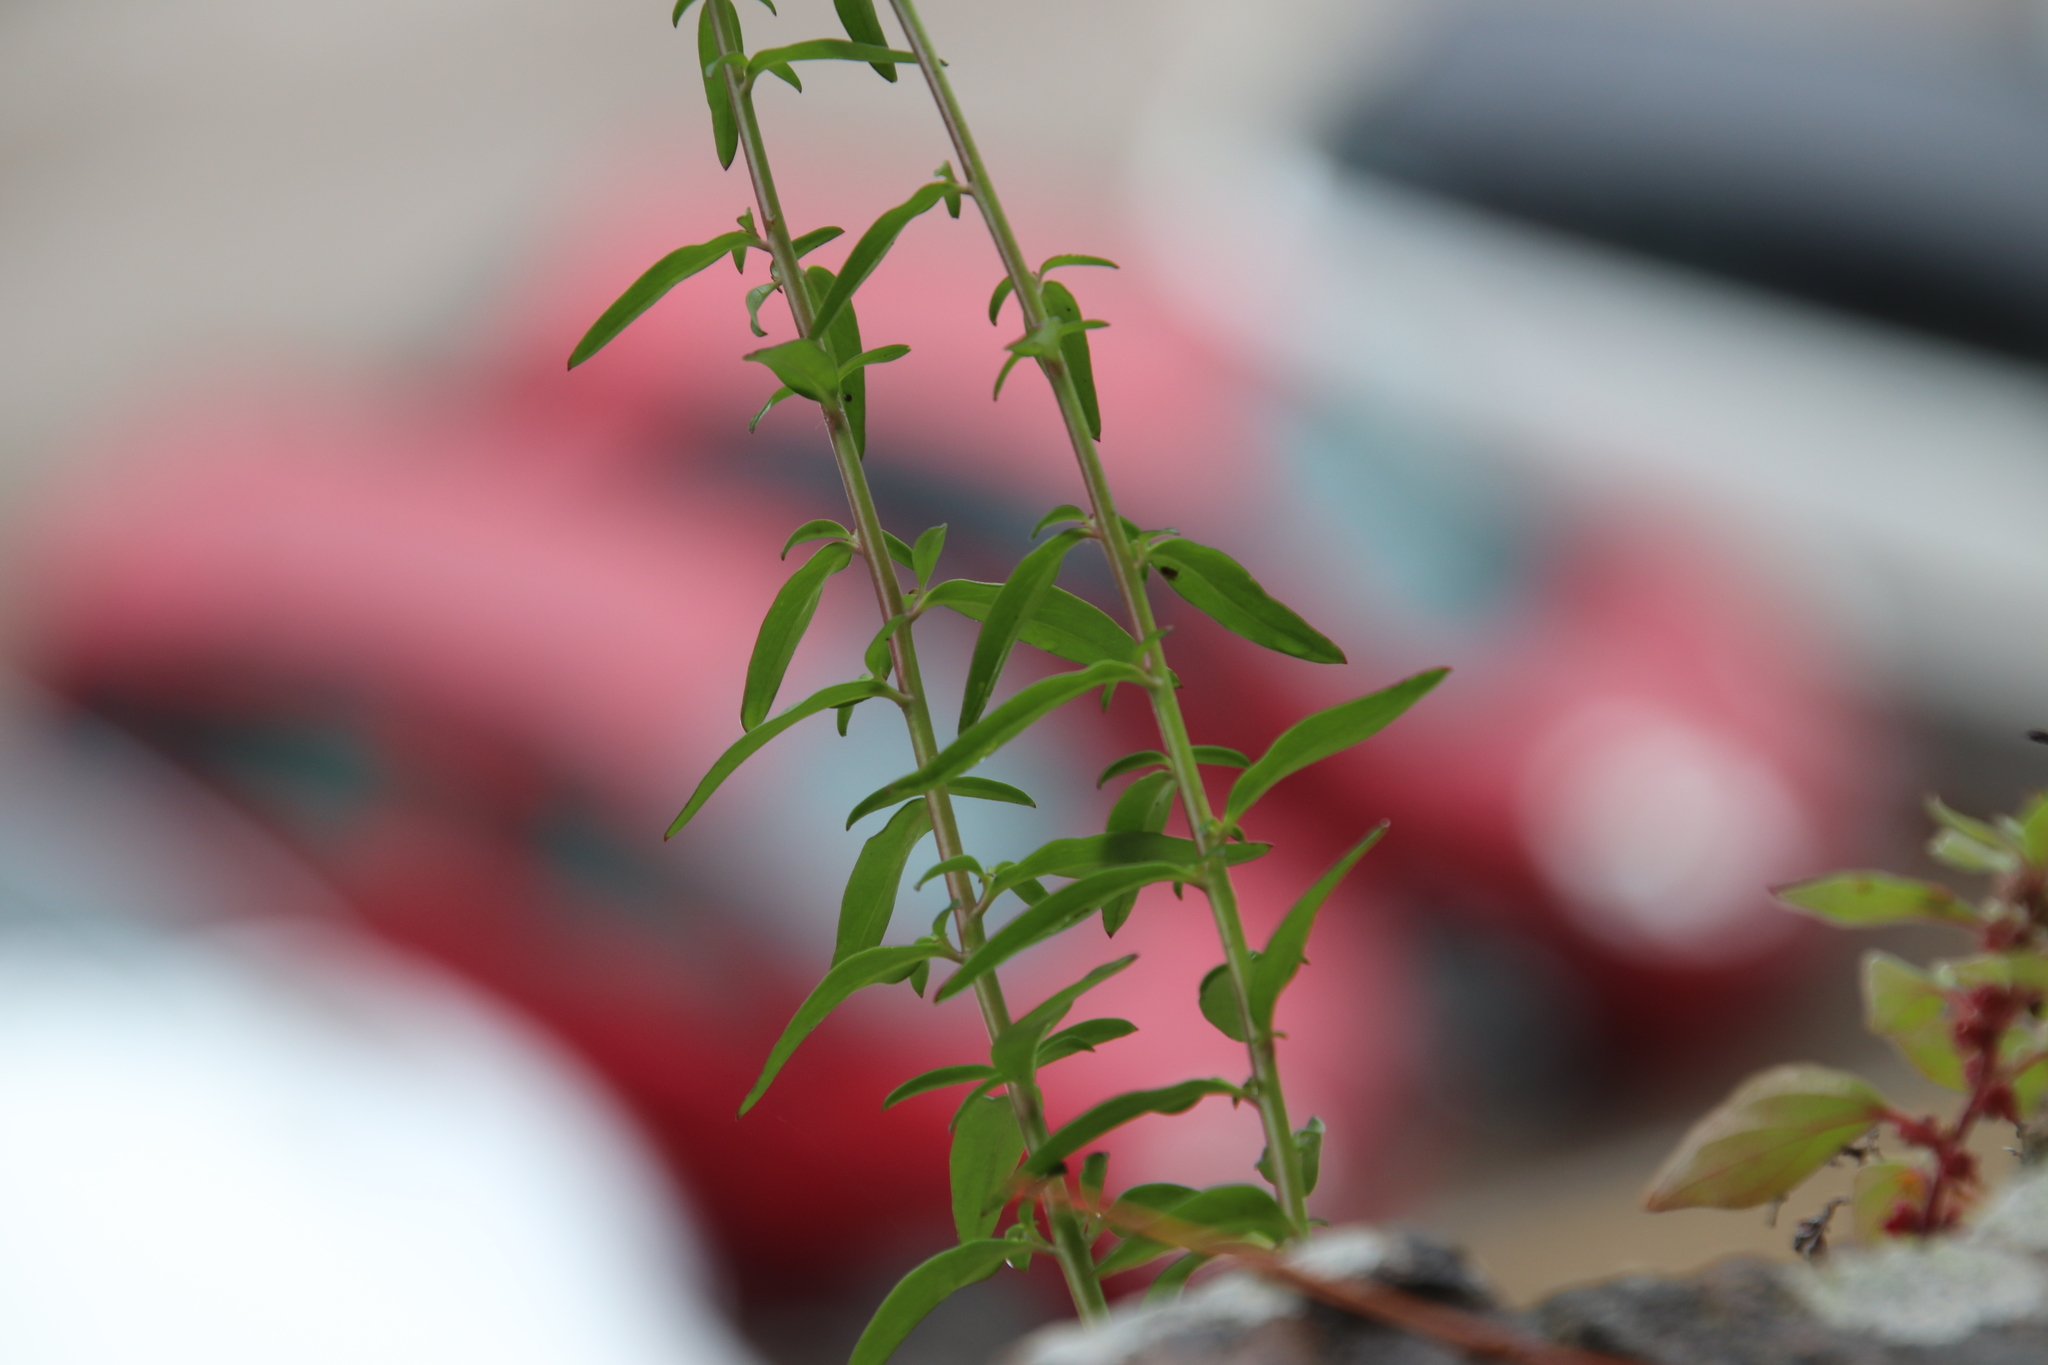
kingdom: Plantae
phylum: Tracheophyta
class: Magnoliopsida
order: Lamiales
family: Plantaginaceae
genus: Antirrhinum
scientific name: Antirrhinum majus
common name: Snapdragon
